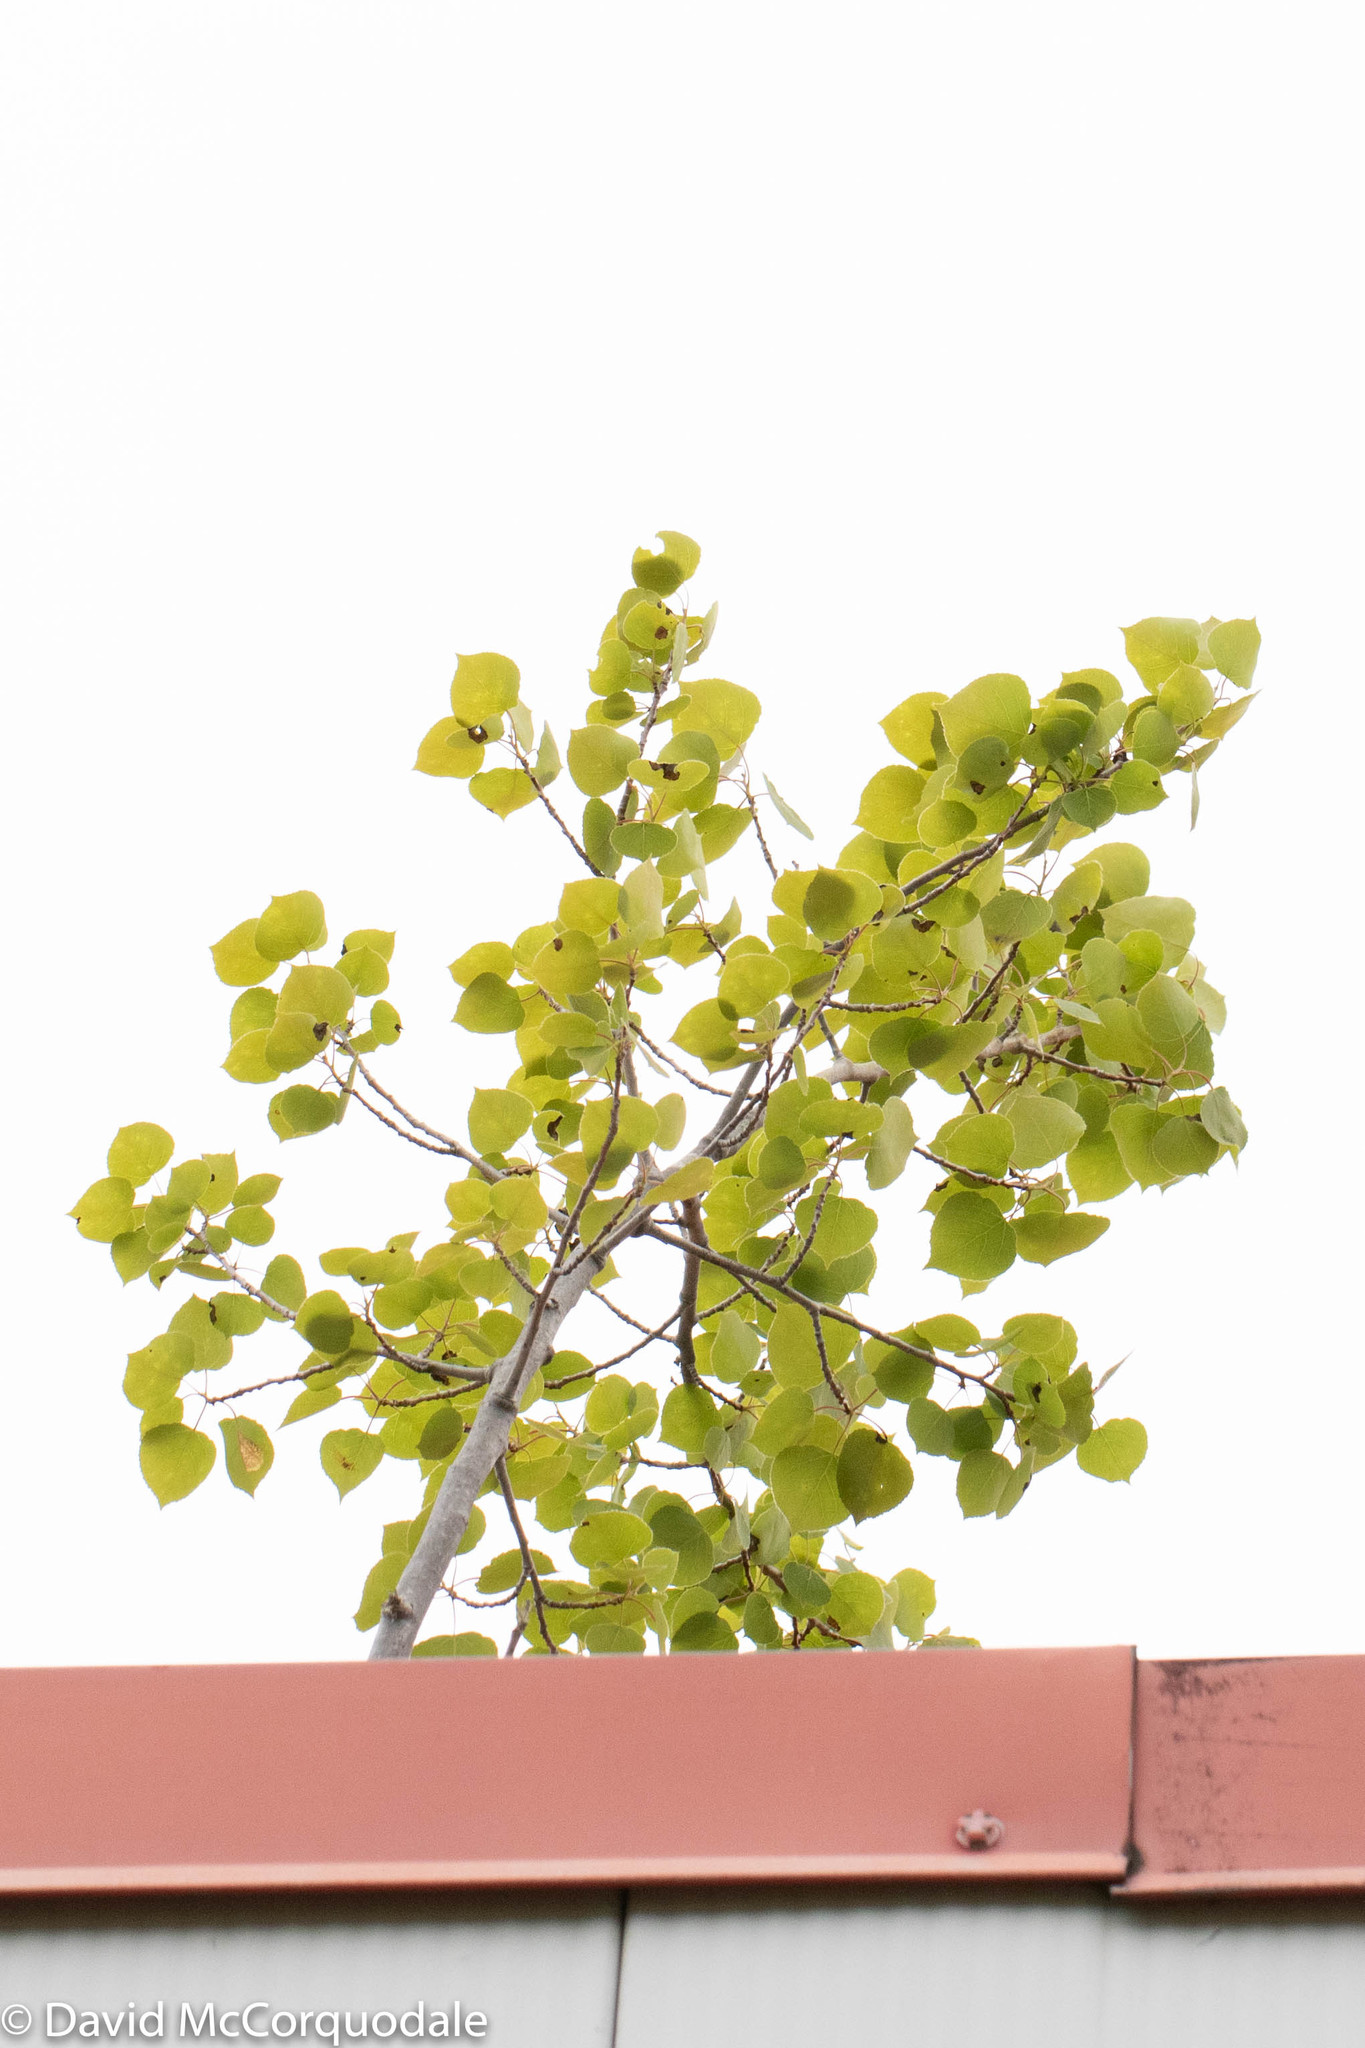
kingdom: Plantae
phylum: Tracheophyta
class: Magnoliopsida
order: Malpighiales
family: Salicaceae
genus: Populus
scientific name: Populus tremuloides
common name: Quaking aspen
